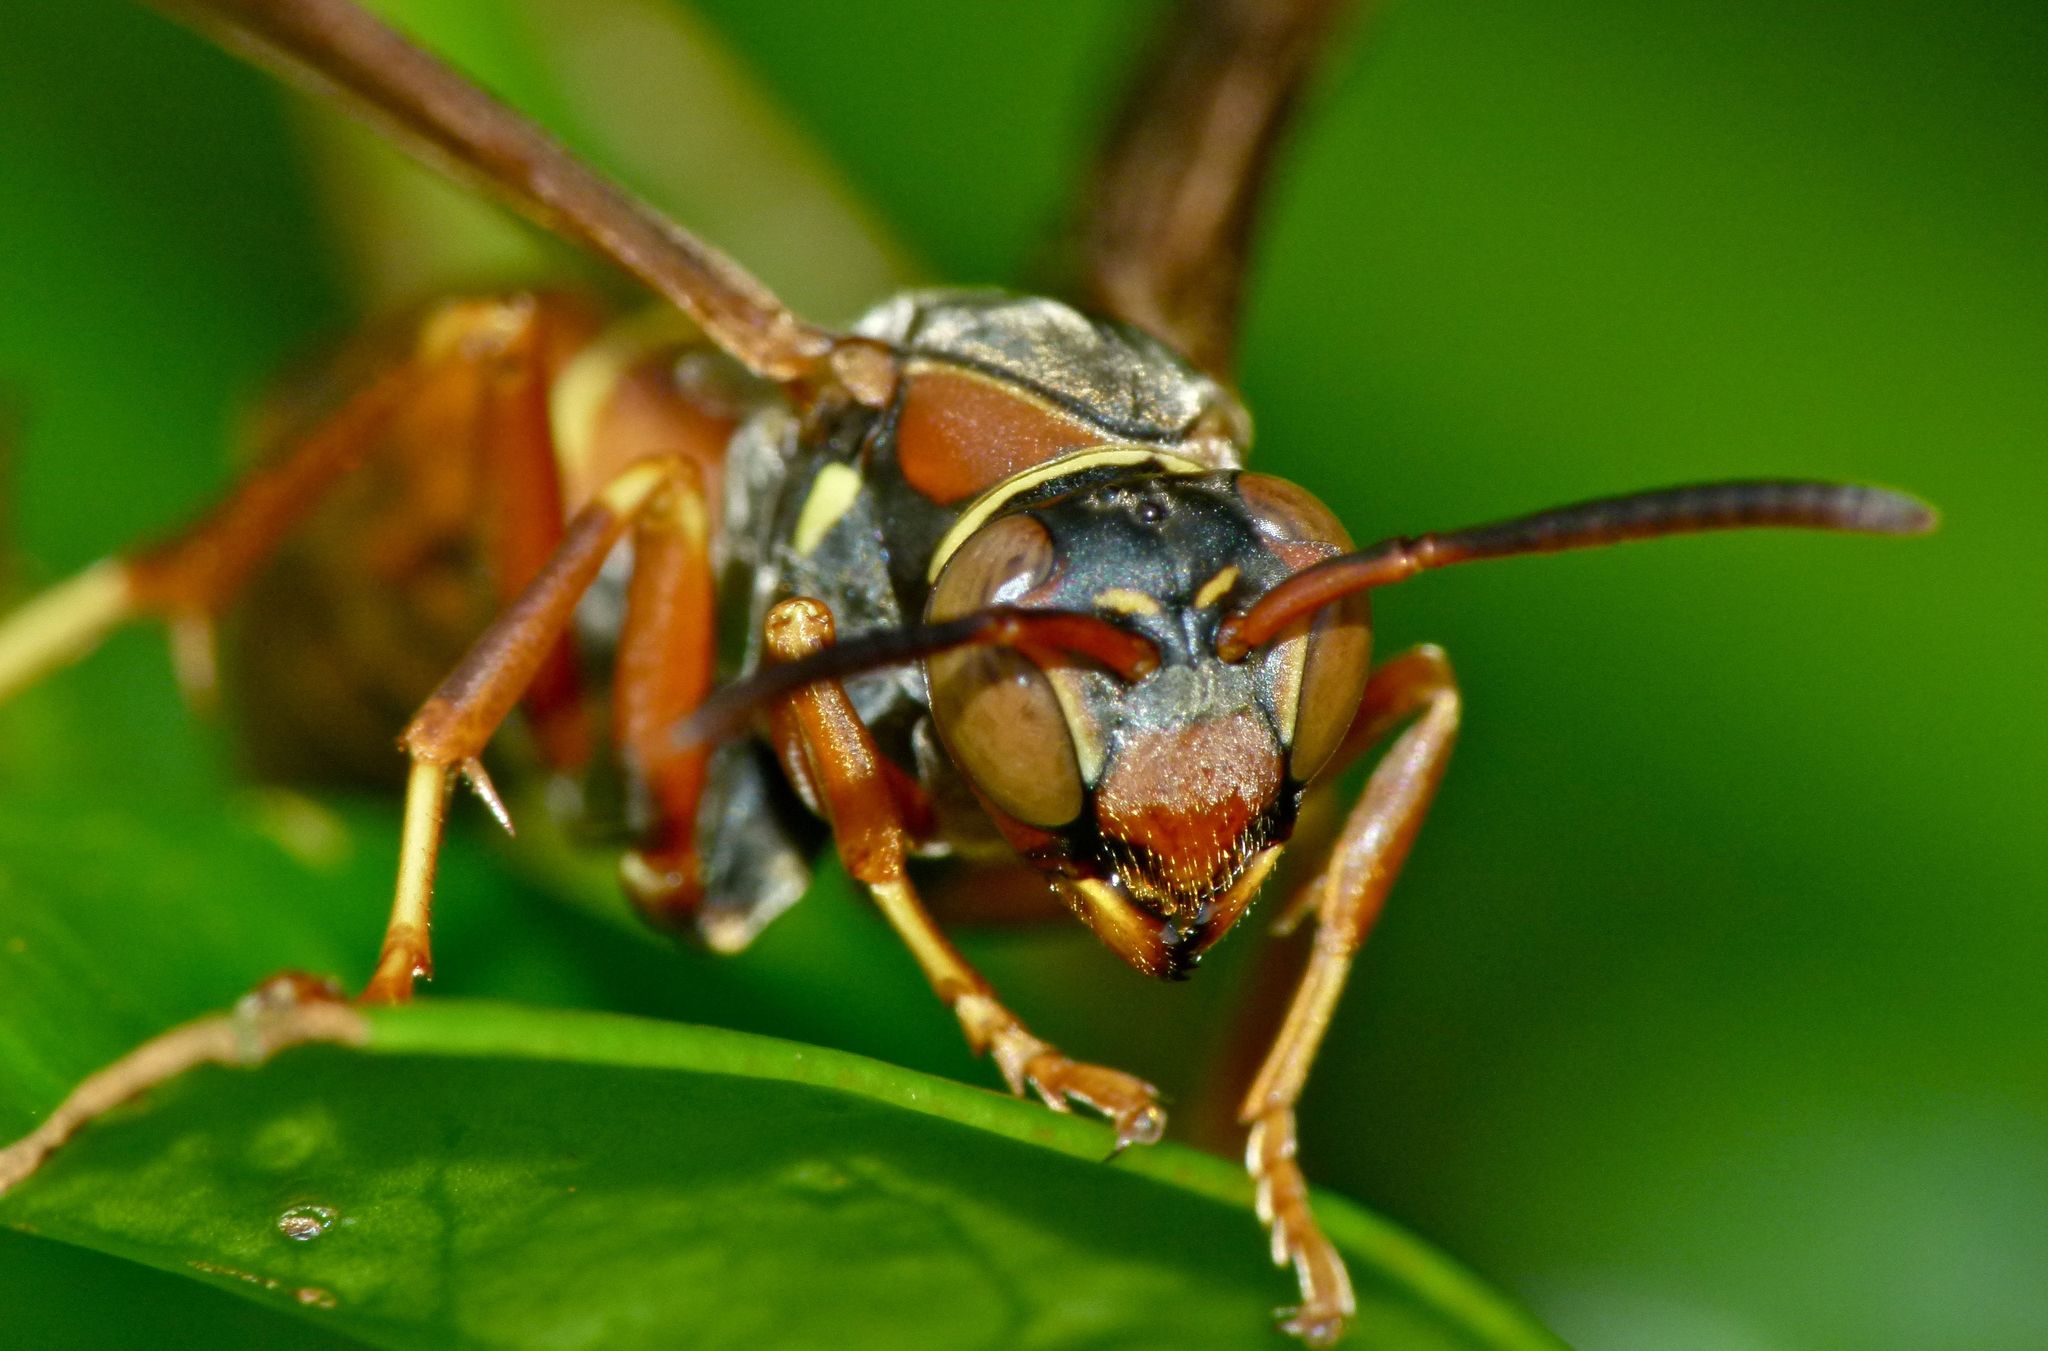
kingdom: Animalia
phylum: Arthropoda
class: Insecta
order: Hymenoptera
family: Eumenidae
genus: Polistes
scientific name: Polistes fuscatus
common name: Dark paper wasp
